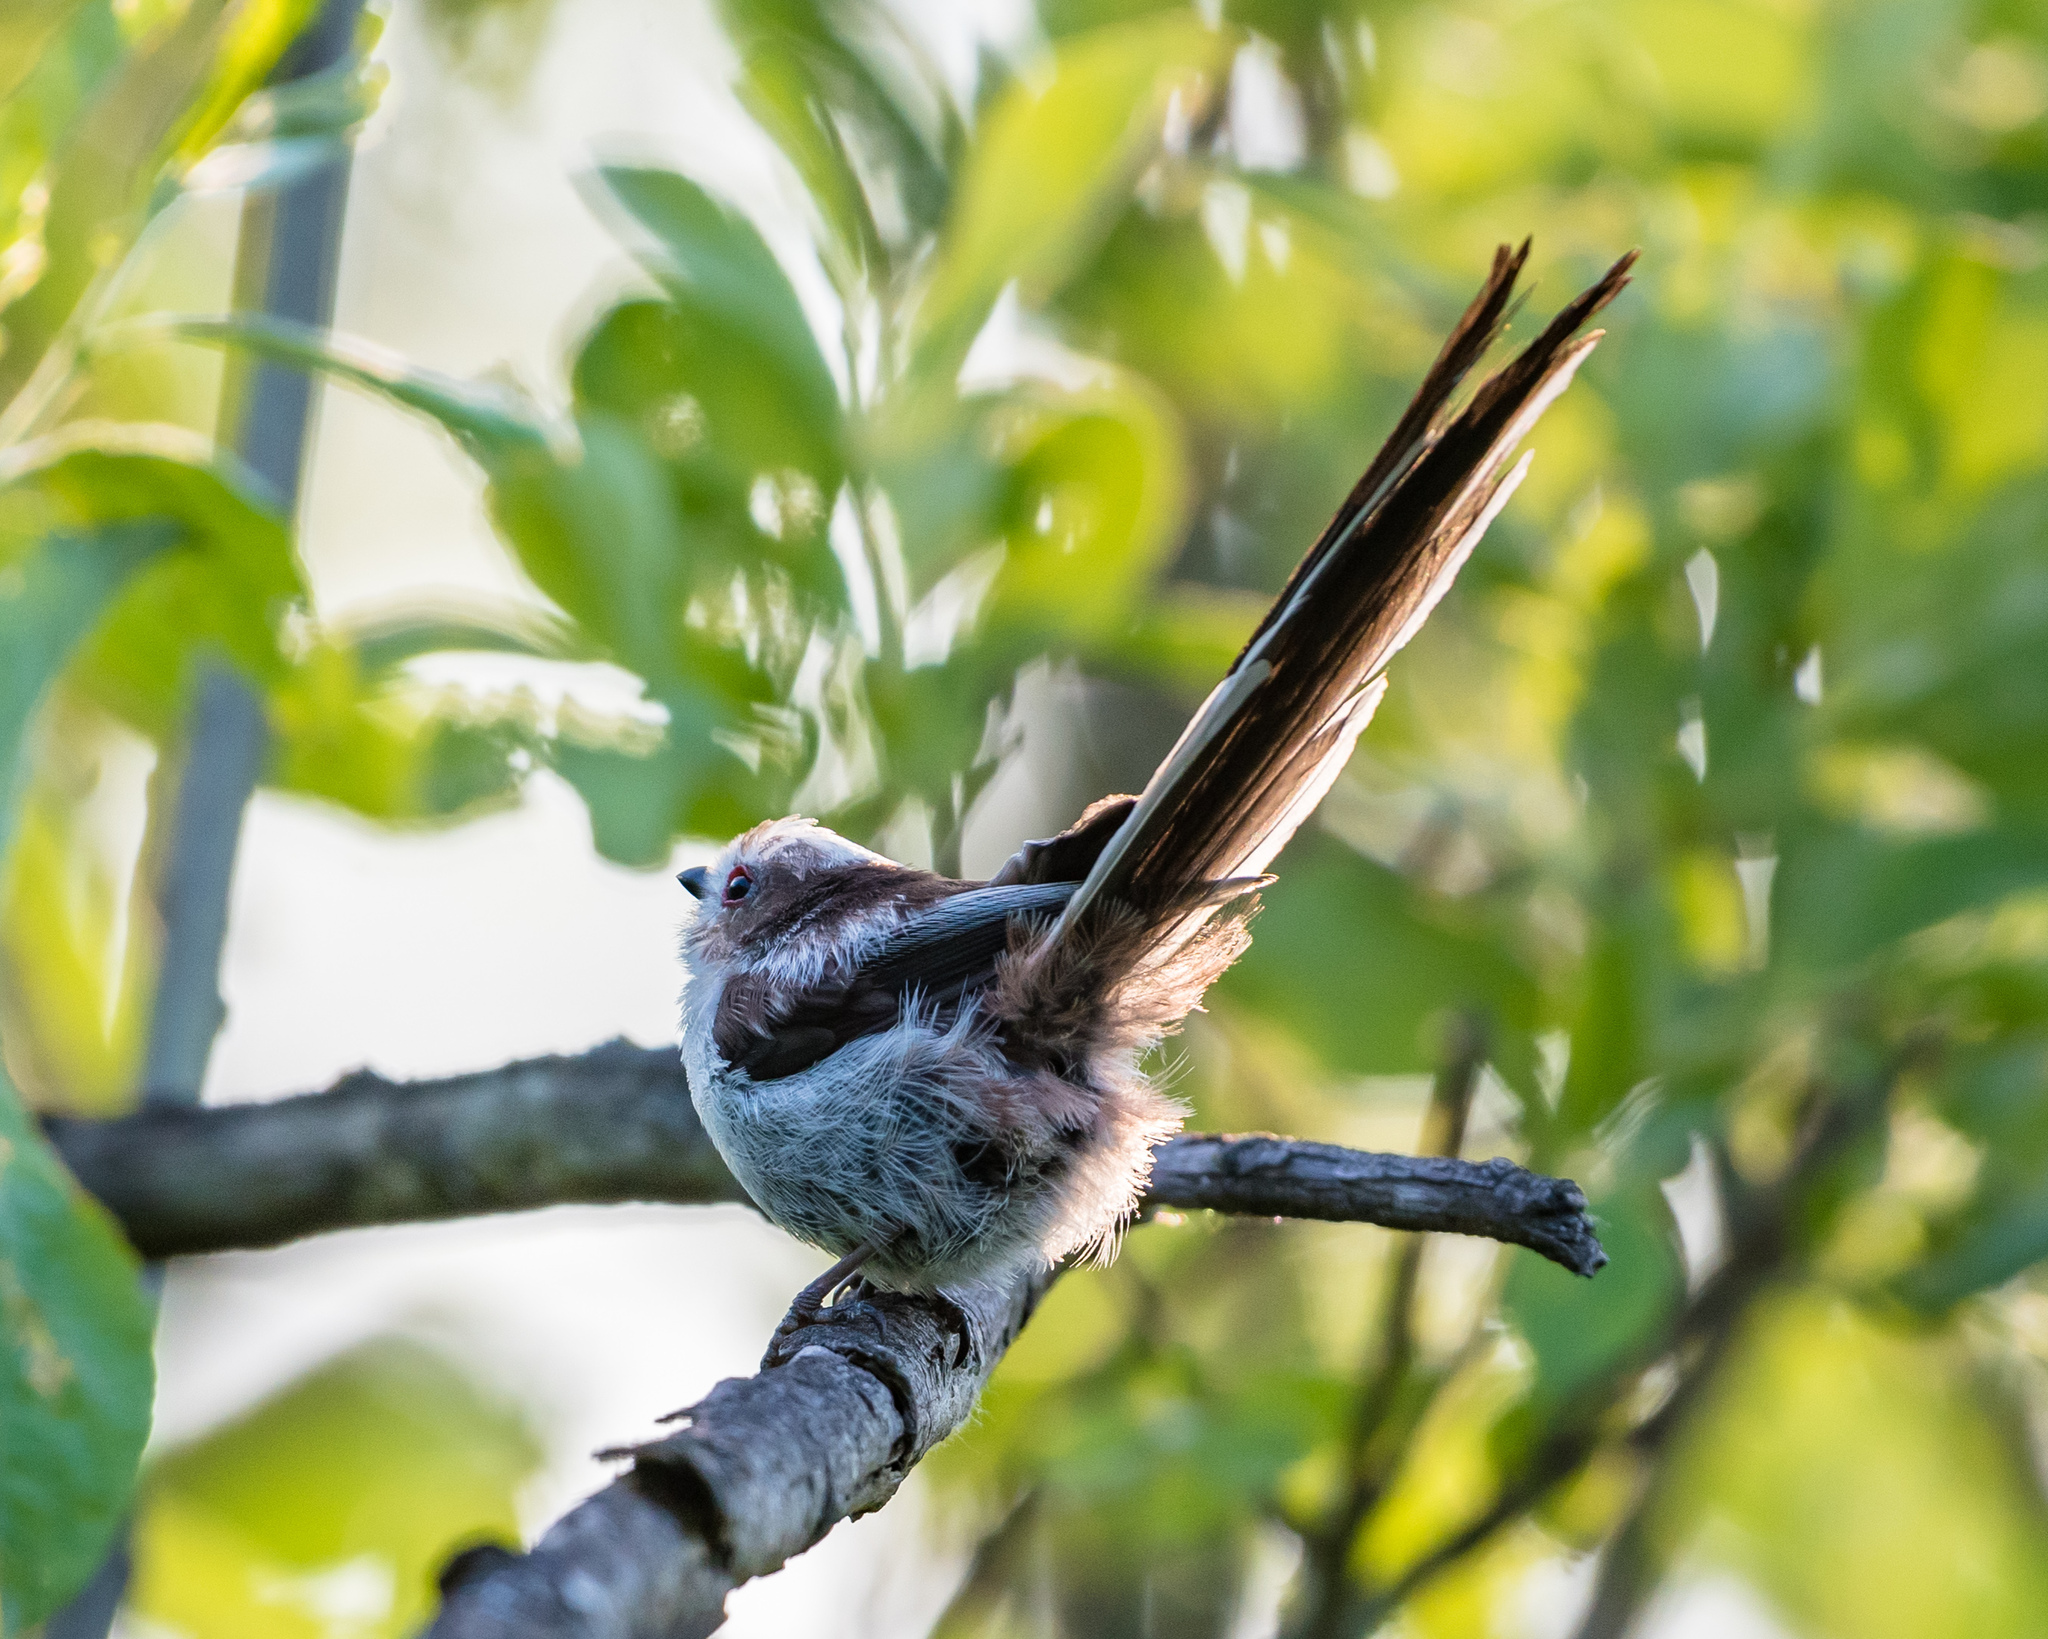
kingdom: Animalia
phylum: Chordata
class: Aves
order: Passeriformes
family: Aegithalidae
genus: Aegithalos
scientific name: Aegithalos caudatus
